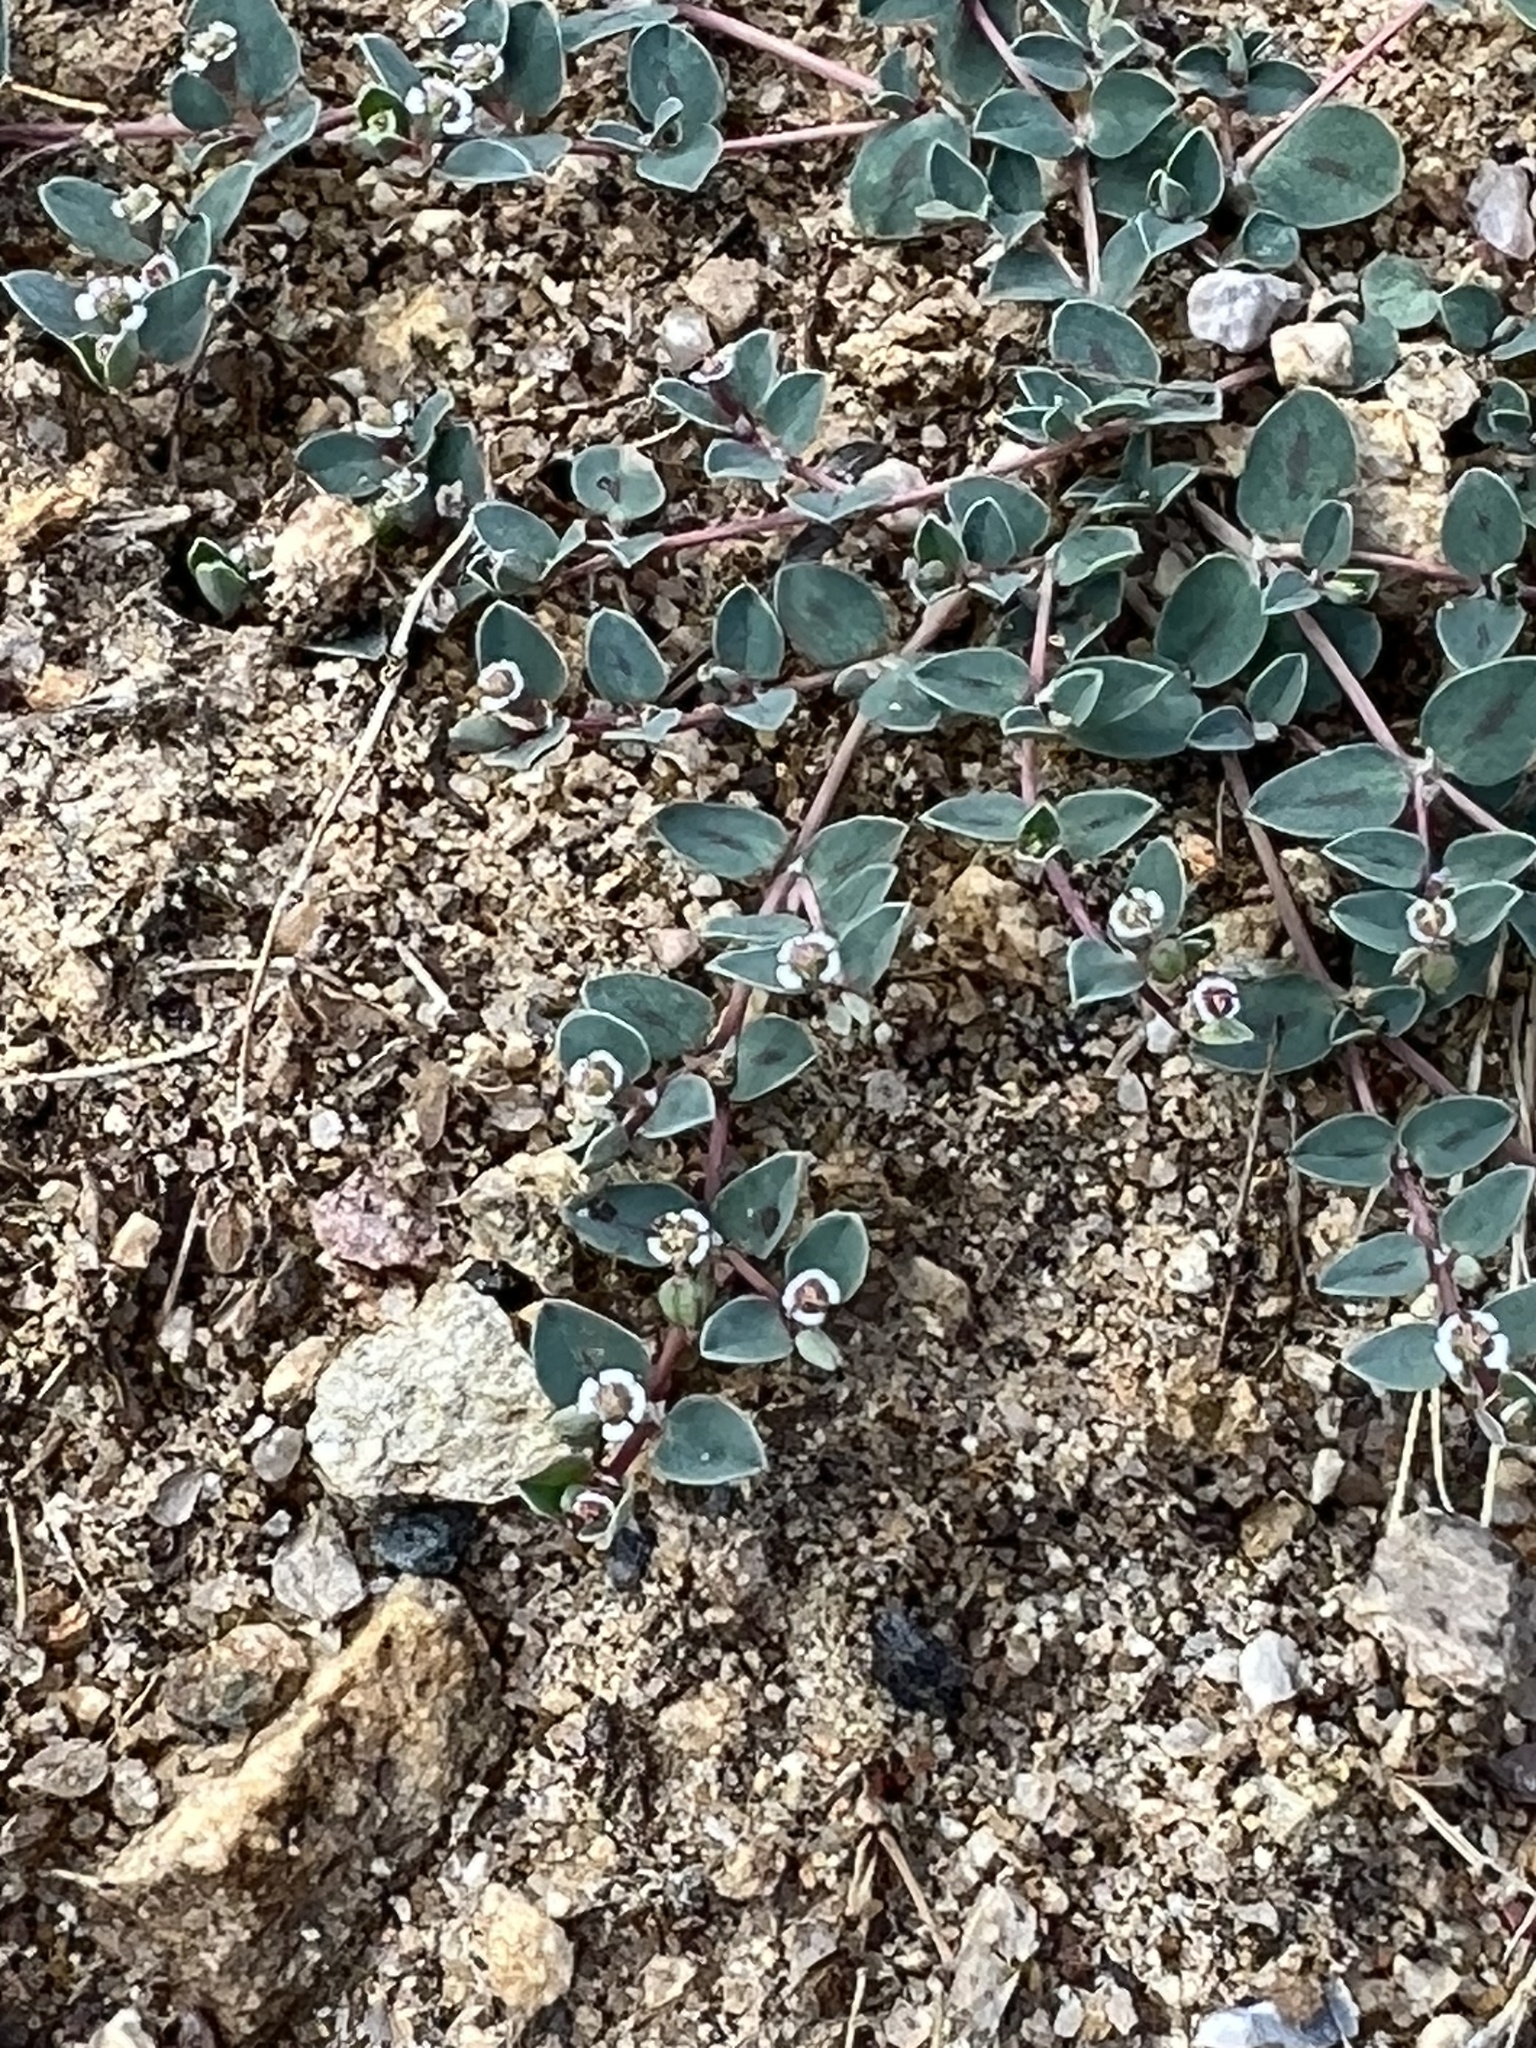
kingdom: Plantae
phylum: Tracheophyta
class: Magnoliopsida
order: Malpighiales
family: Euphorbiaceae
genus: Euphorbia
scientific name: Euphorbia albomarginata
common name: Whitemargin sandmat
